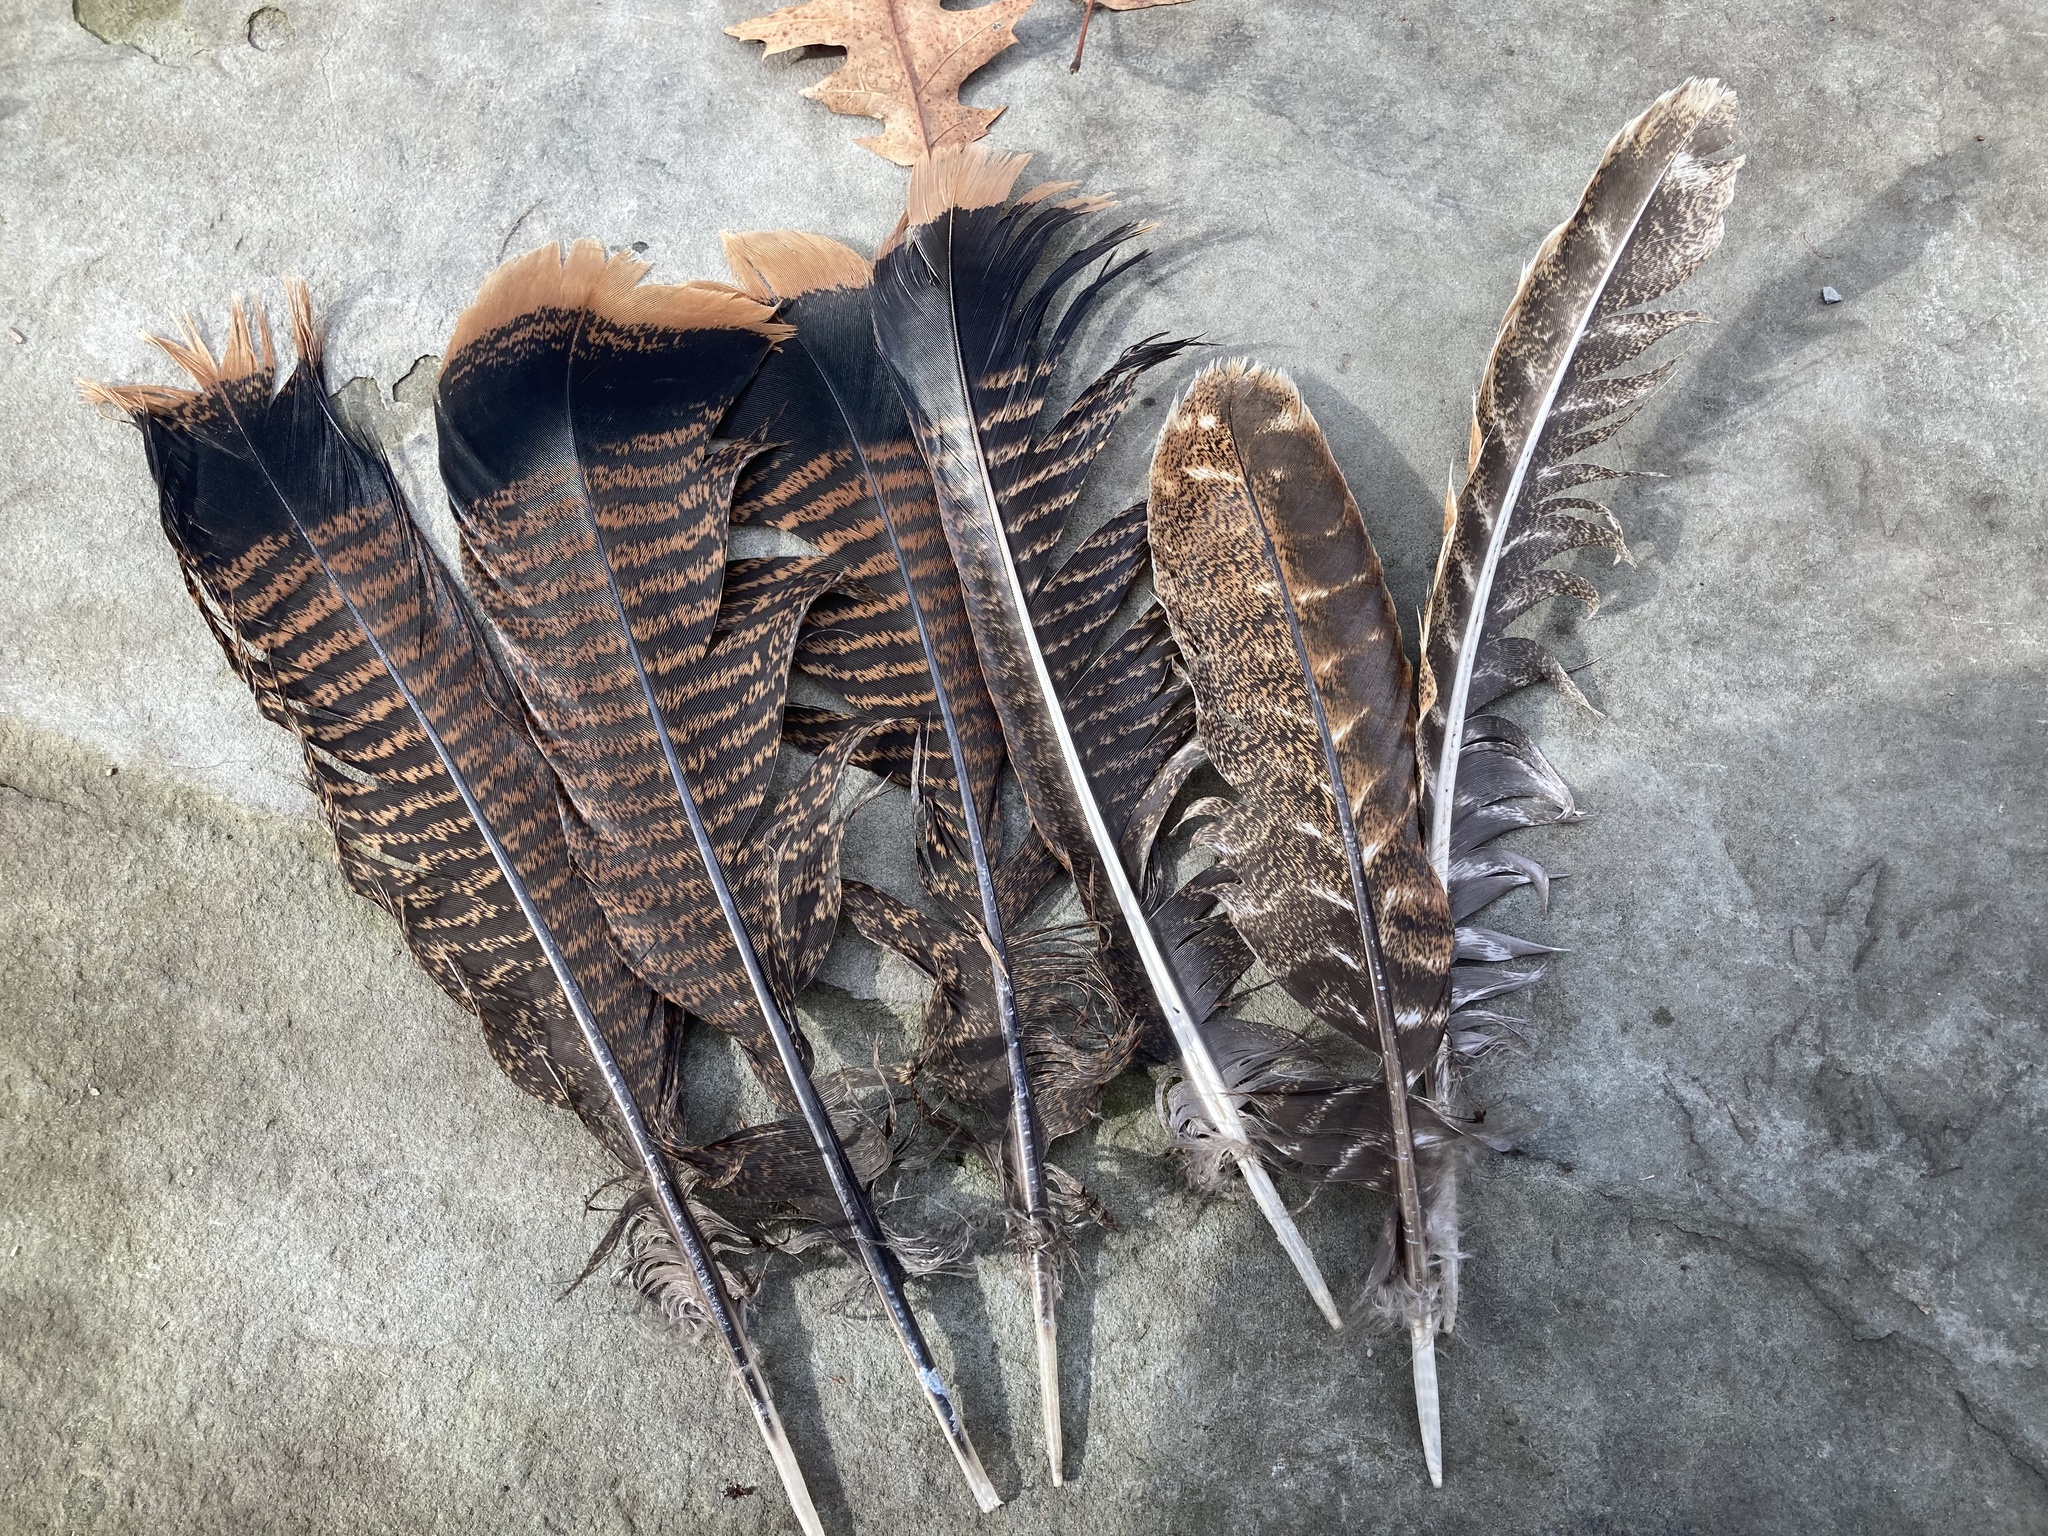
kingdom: Animalia
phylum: Chordata
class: Aves
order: Galliformes
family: Phasianidae
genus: Meleagris
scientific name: Meleagris gallopavo
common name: Wild turkey
